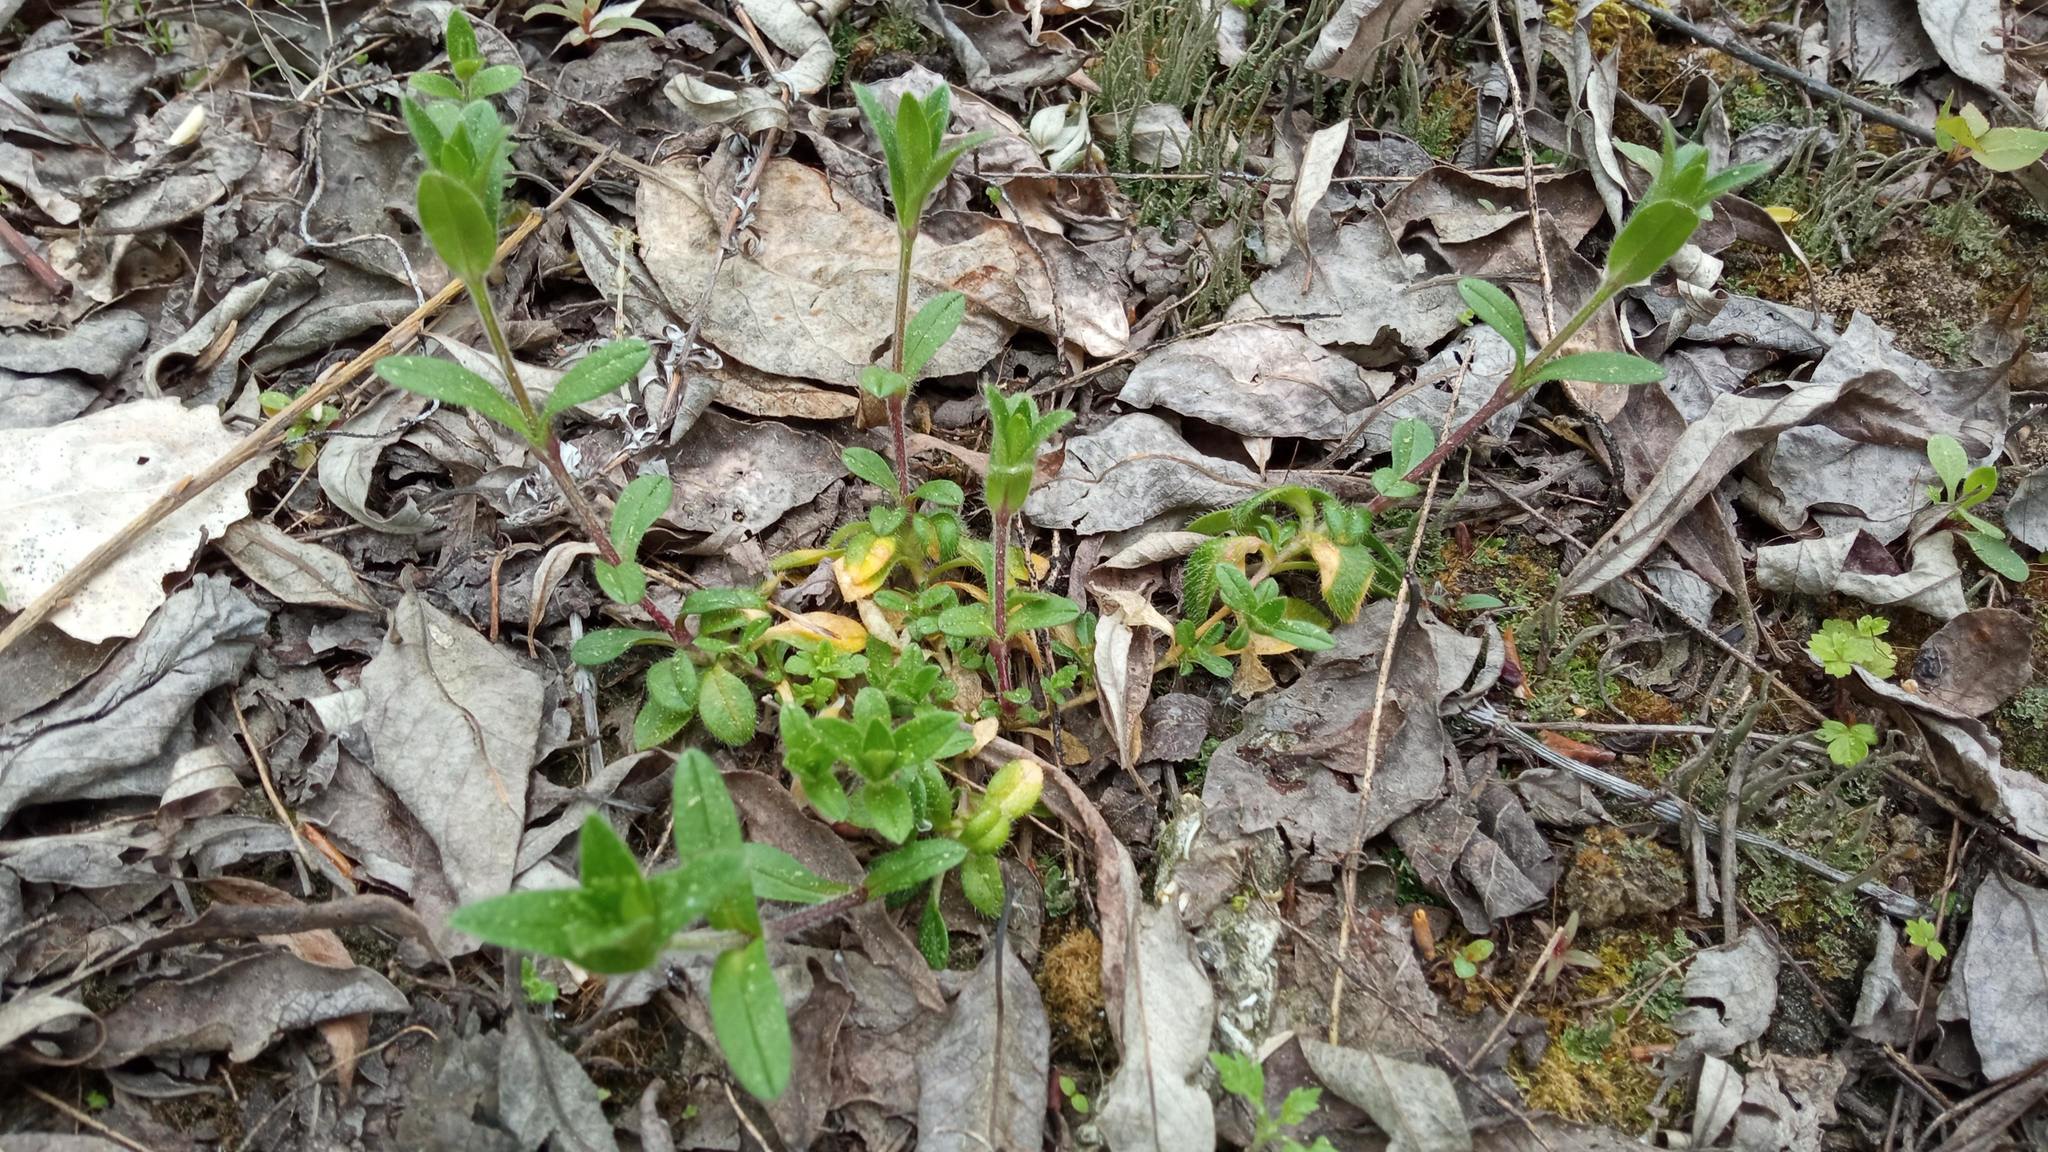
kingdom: Plantae
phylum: Tracheophyta
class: Magnoliopsida
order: Caryophyllales
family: Caryophyllaceae
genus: Cerastium
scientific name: Cerastium holosteoides
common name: Big chickweed
